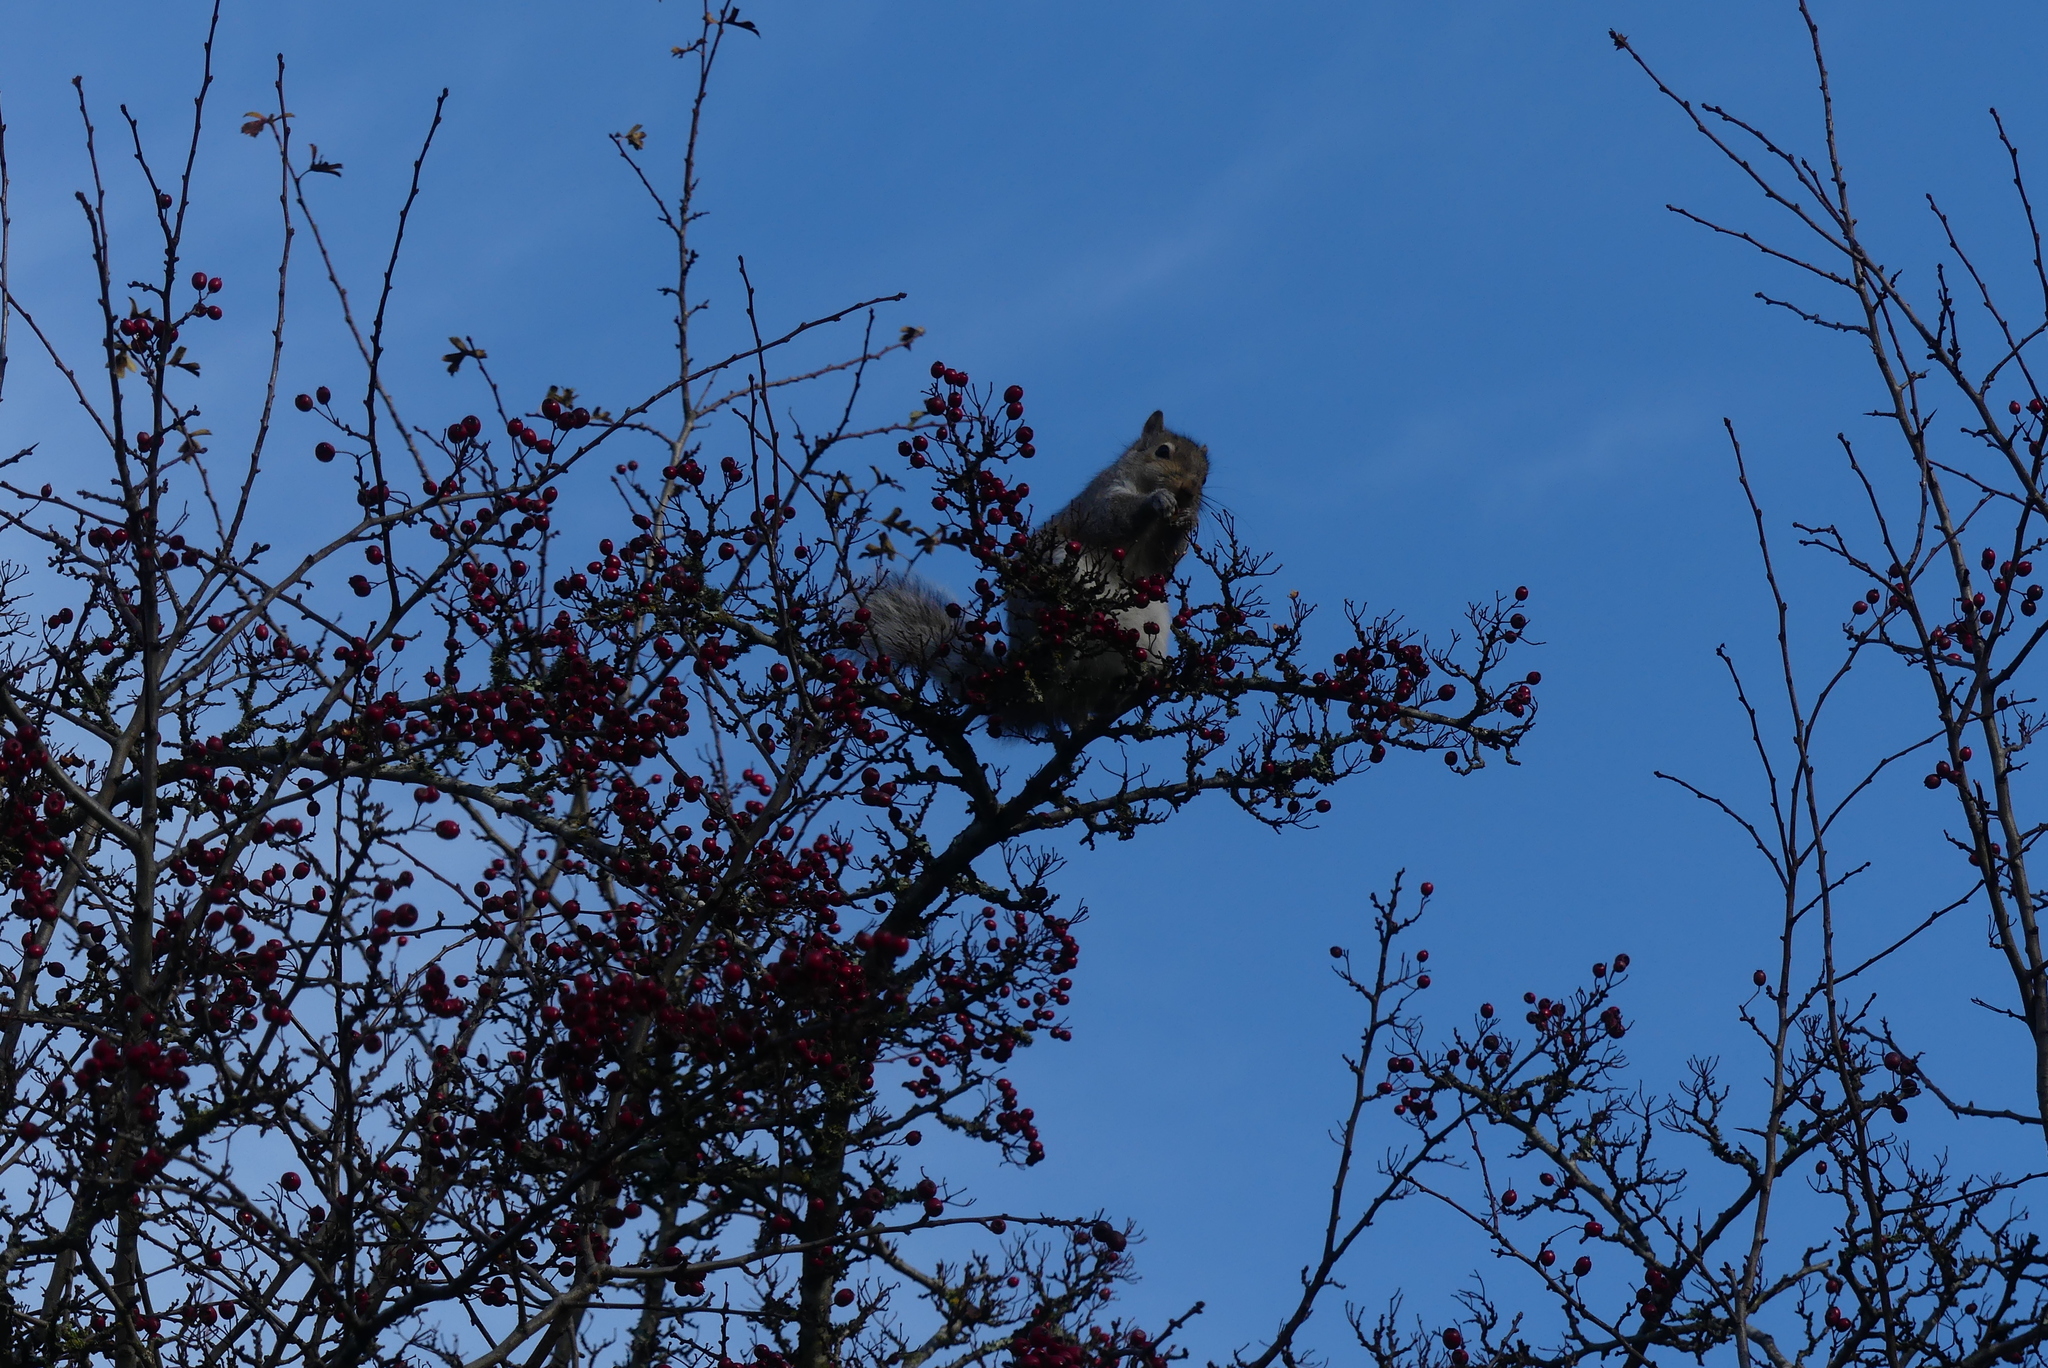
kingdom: Animalia
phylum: Chordata
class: Mammalia
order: Rodentia
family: Sciuridae
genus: Sciurus
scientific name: Sciurus carolinensis
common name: Eastern gray squirrel
